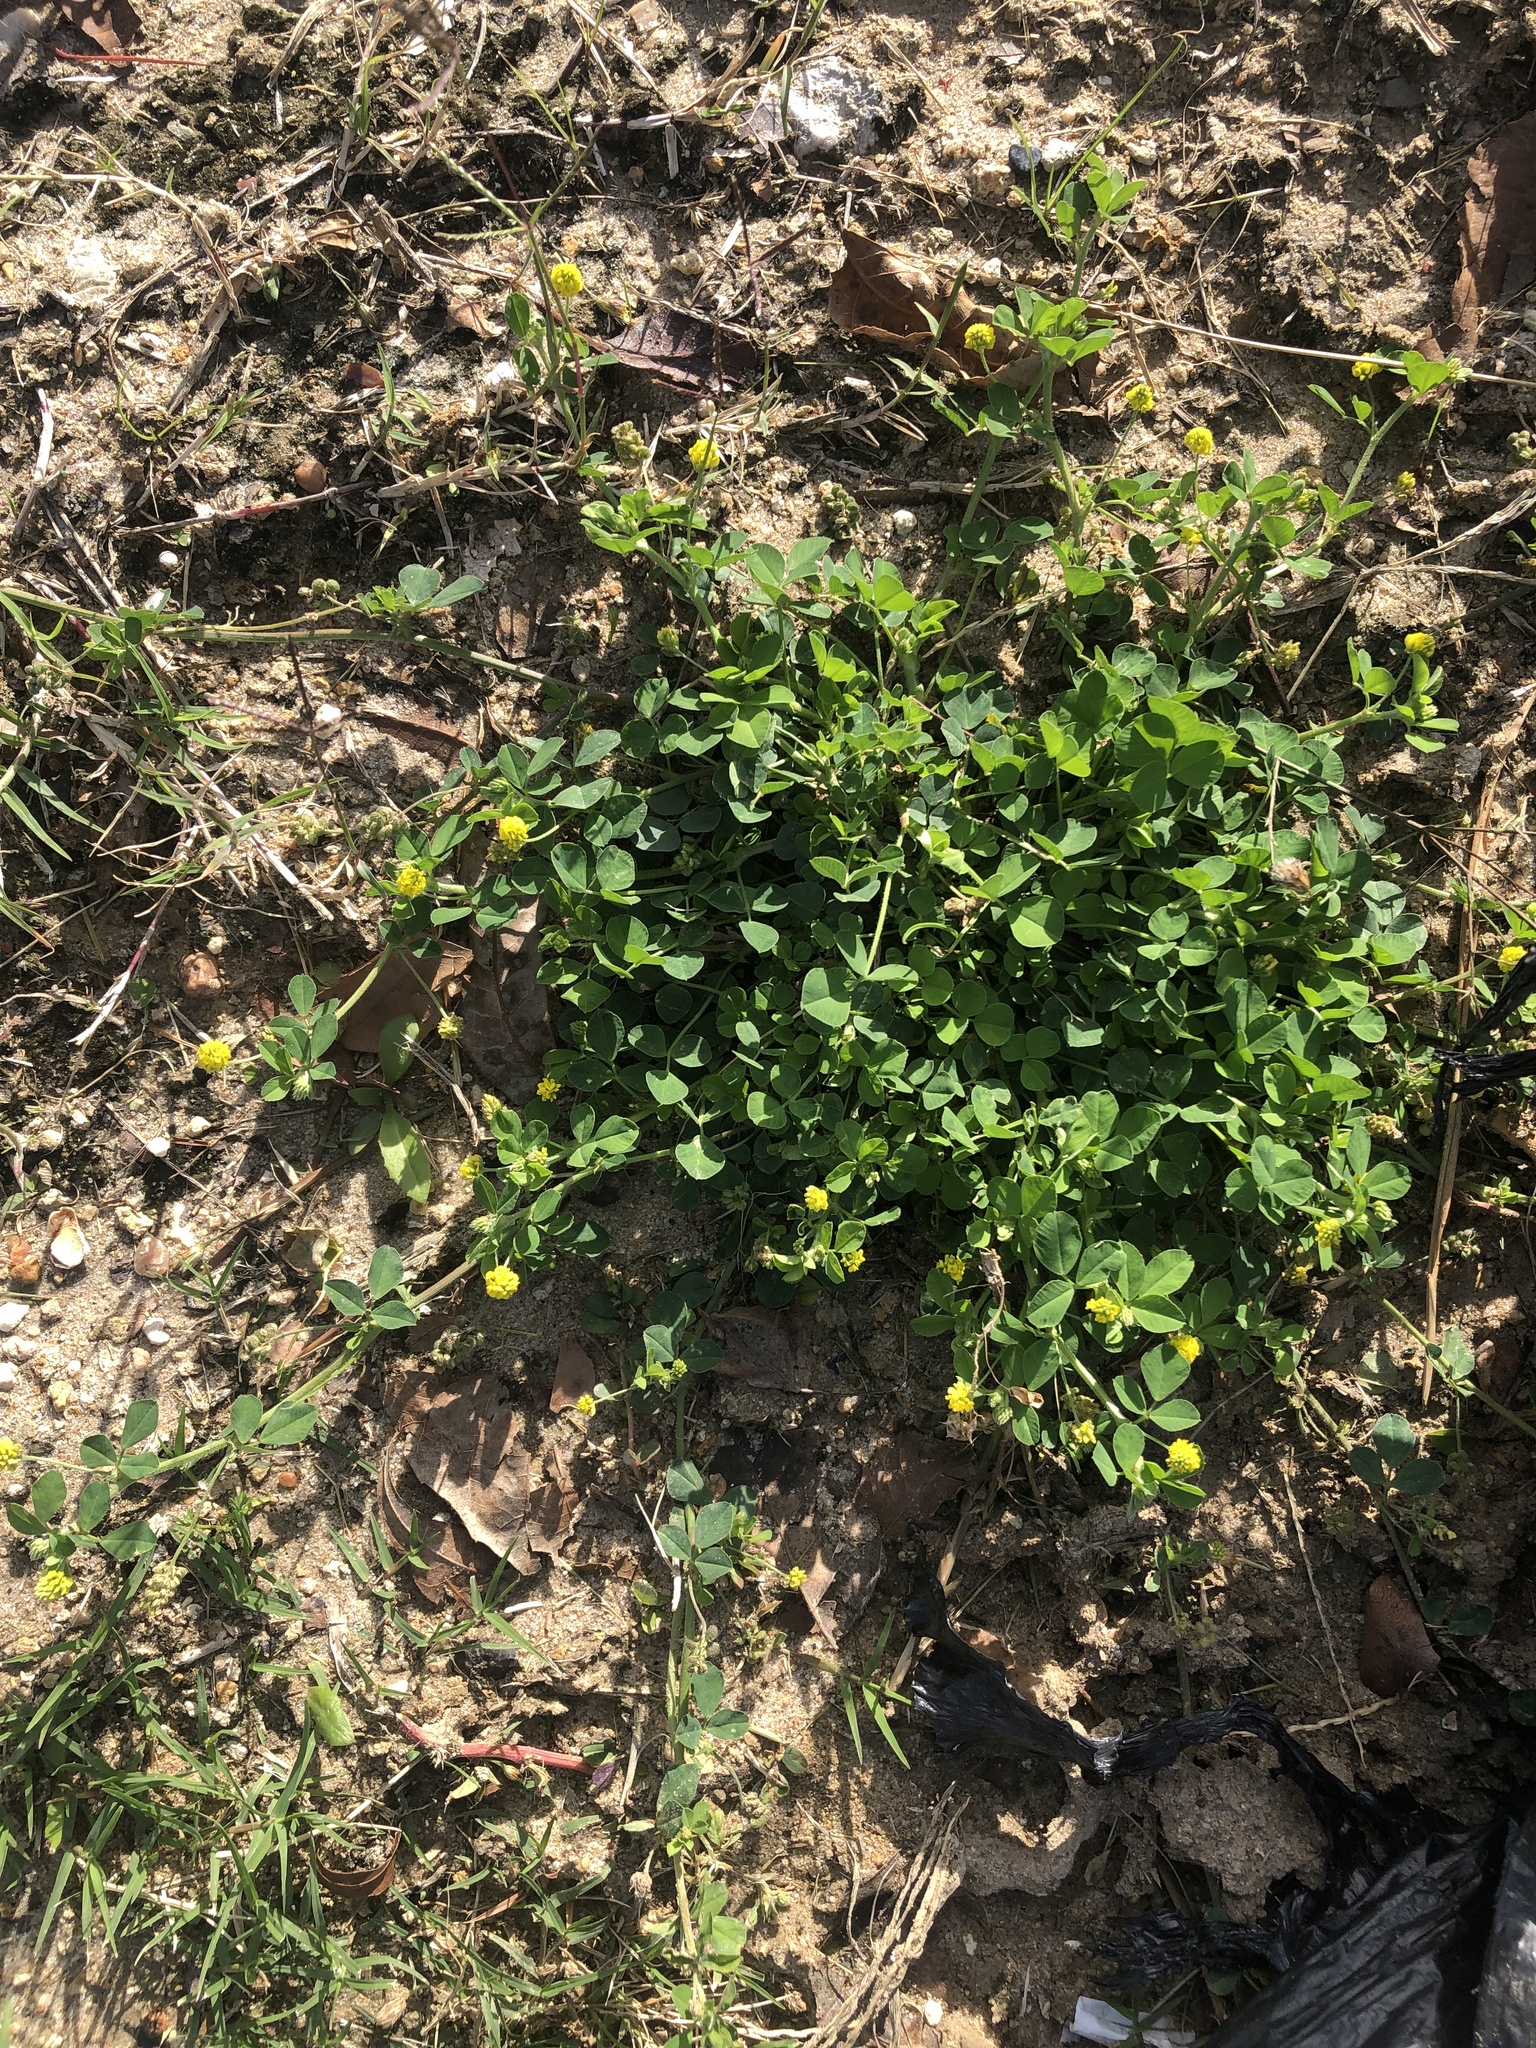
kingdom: Plantae
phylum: Tracheophyta
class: Magnoliopsida
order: Fabales
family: Fabaceae
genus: Medicago
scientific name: Medicago lupulina
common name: Black medick
